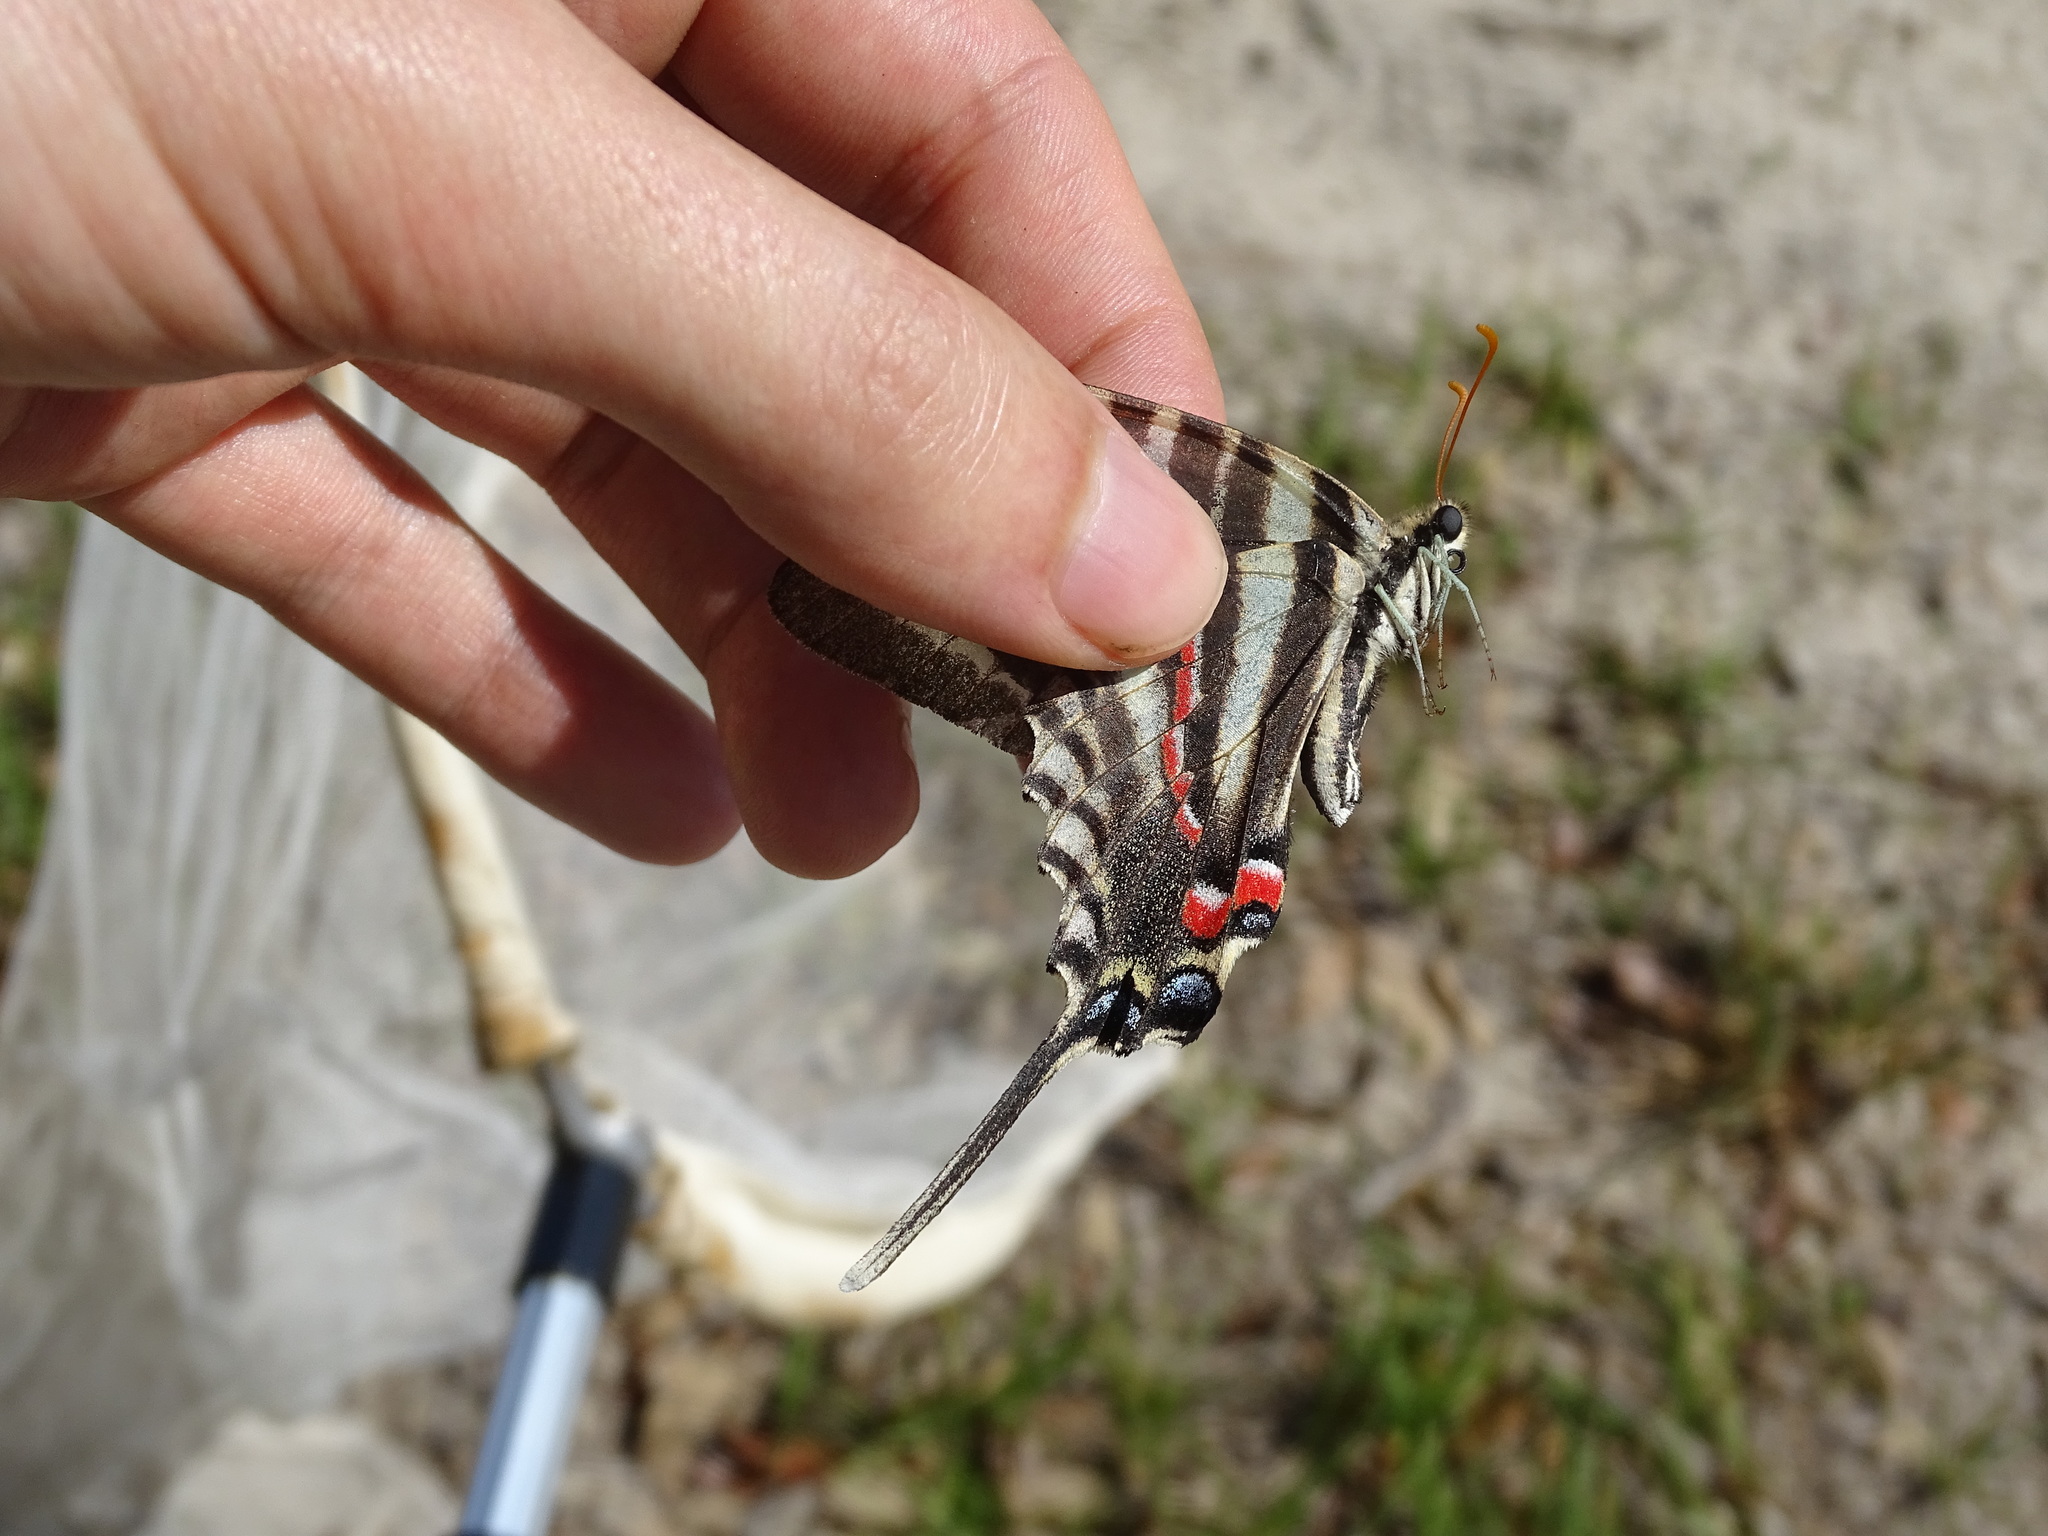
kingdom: Animalia
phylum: Arthropoda
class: Insecta
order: Lepidoptera
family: Papilionidae
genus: Protographium
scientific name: Protographium marcellus
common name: Zebra swallowtail
